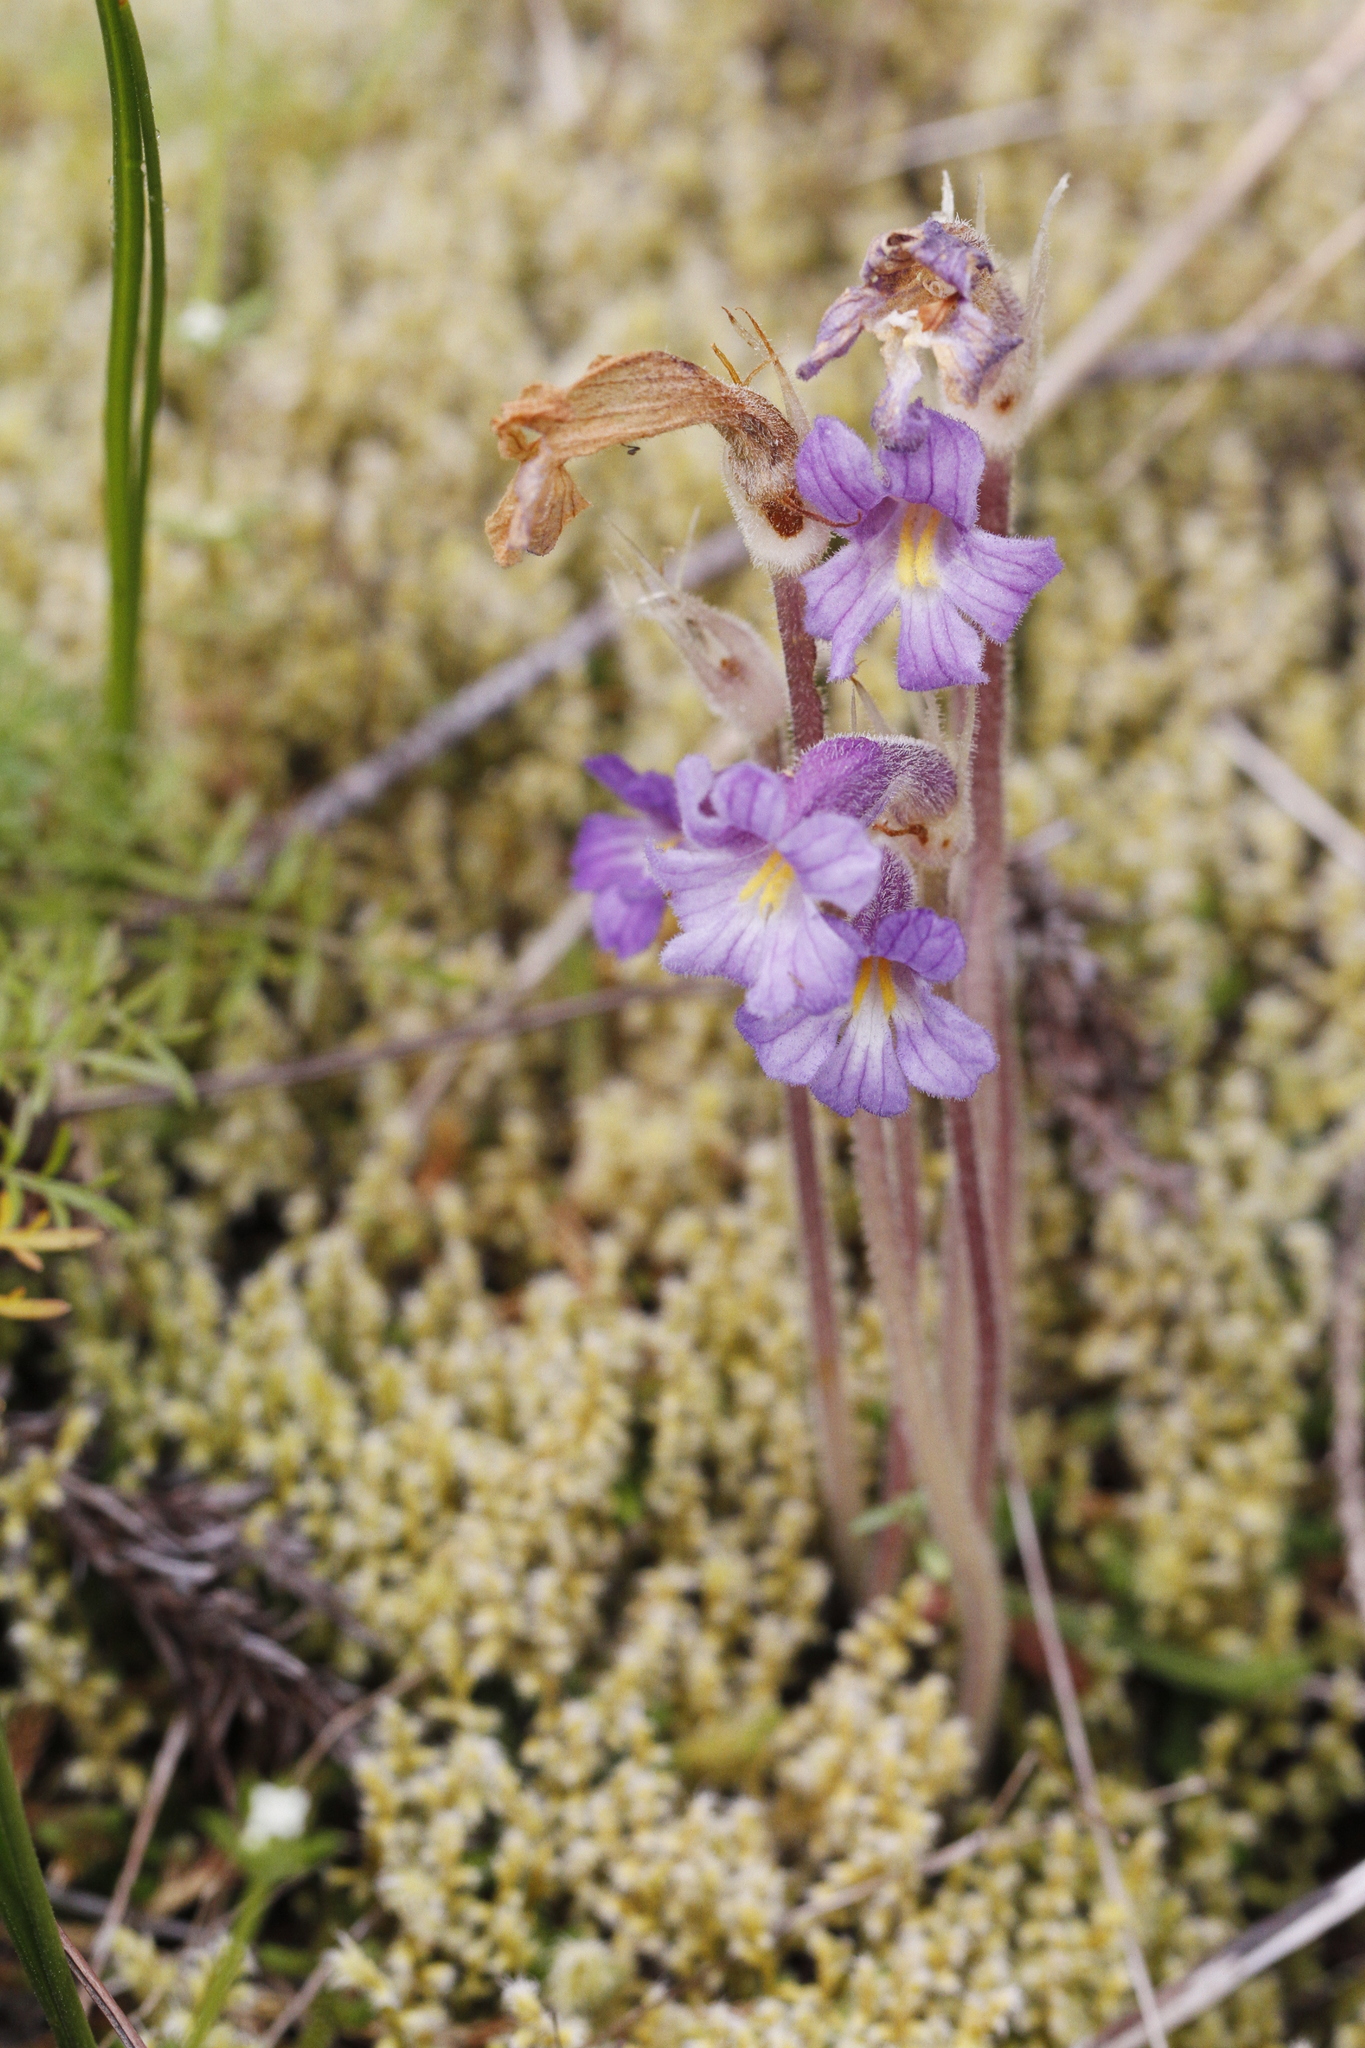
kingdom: Plantae
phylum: Tracheophyta
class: Magnoliopsida
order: Lamiales
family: Orobanchaceae
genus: Aphyllon
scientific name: Aphyllon uniflorum
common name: One-flowered broomrape
